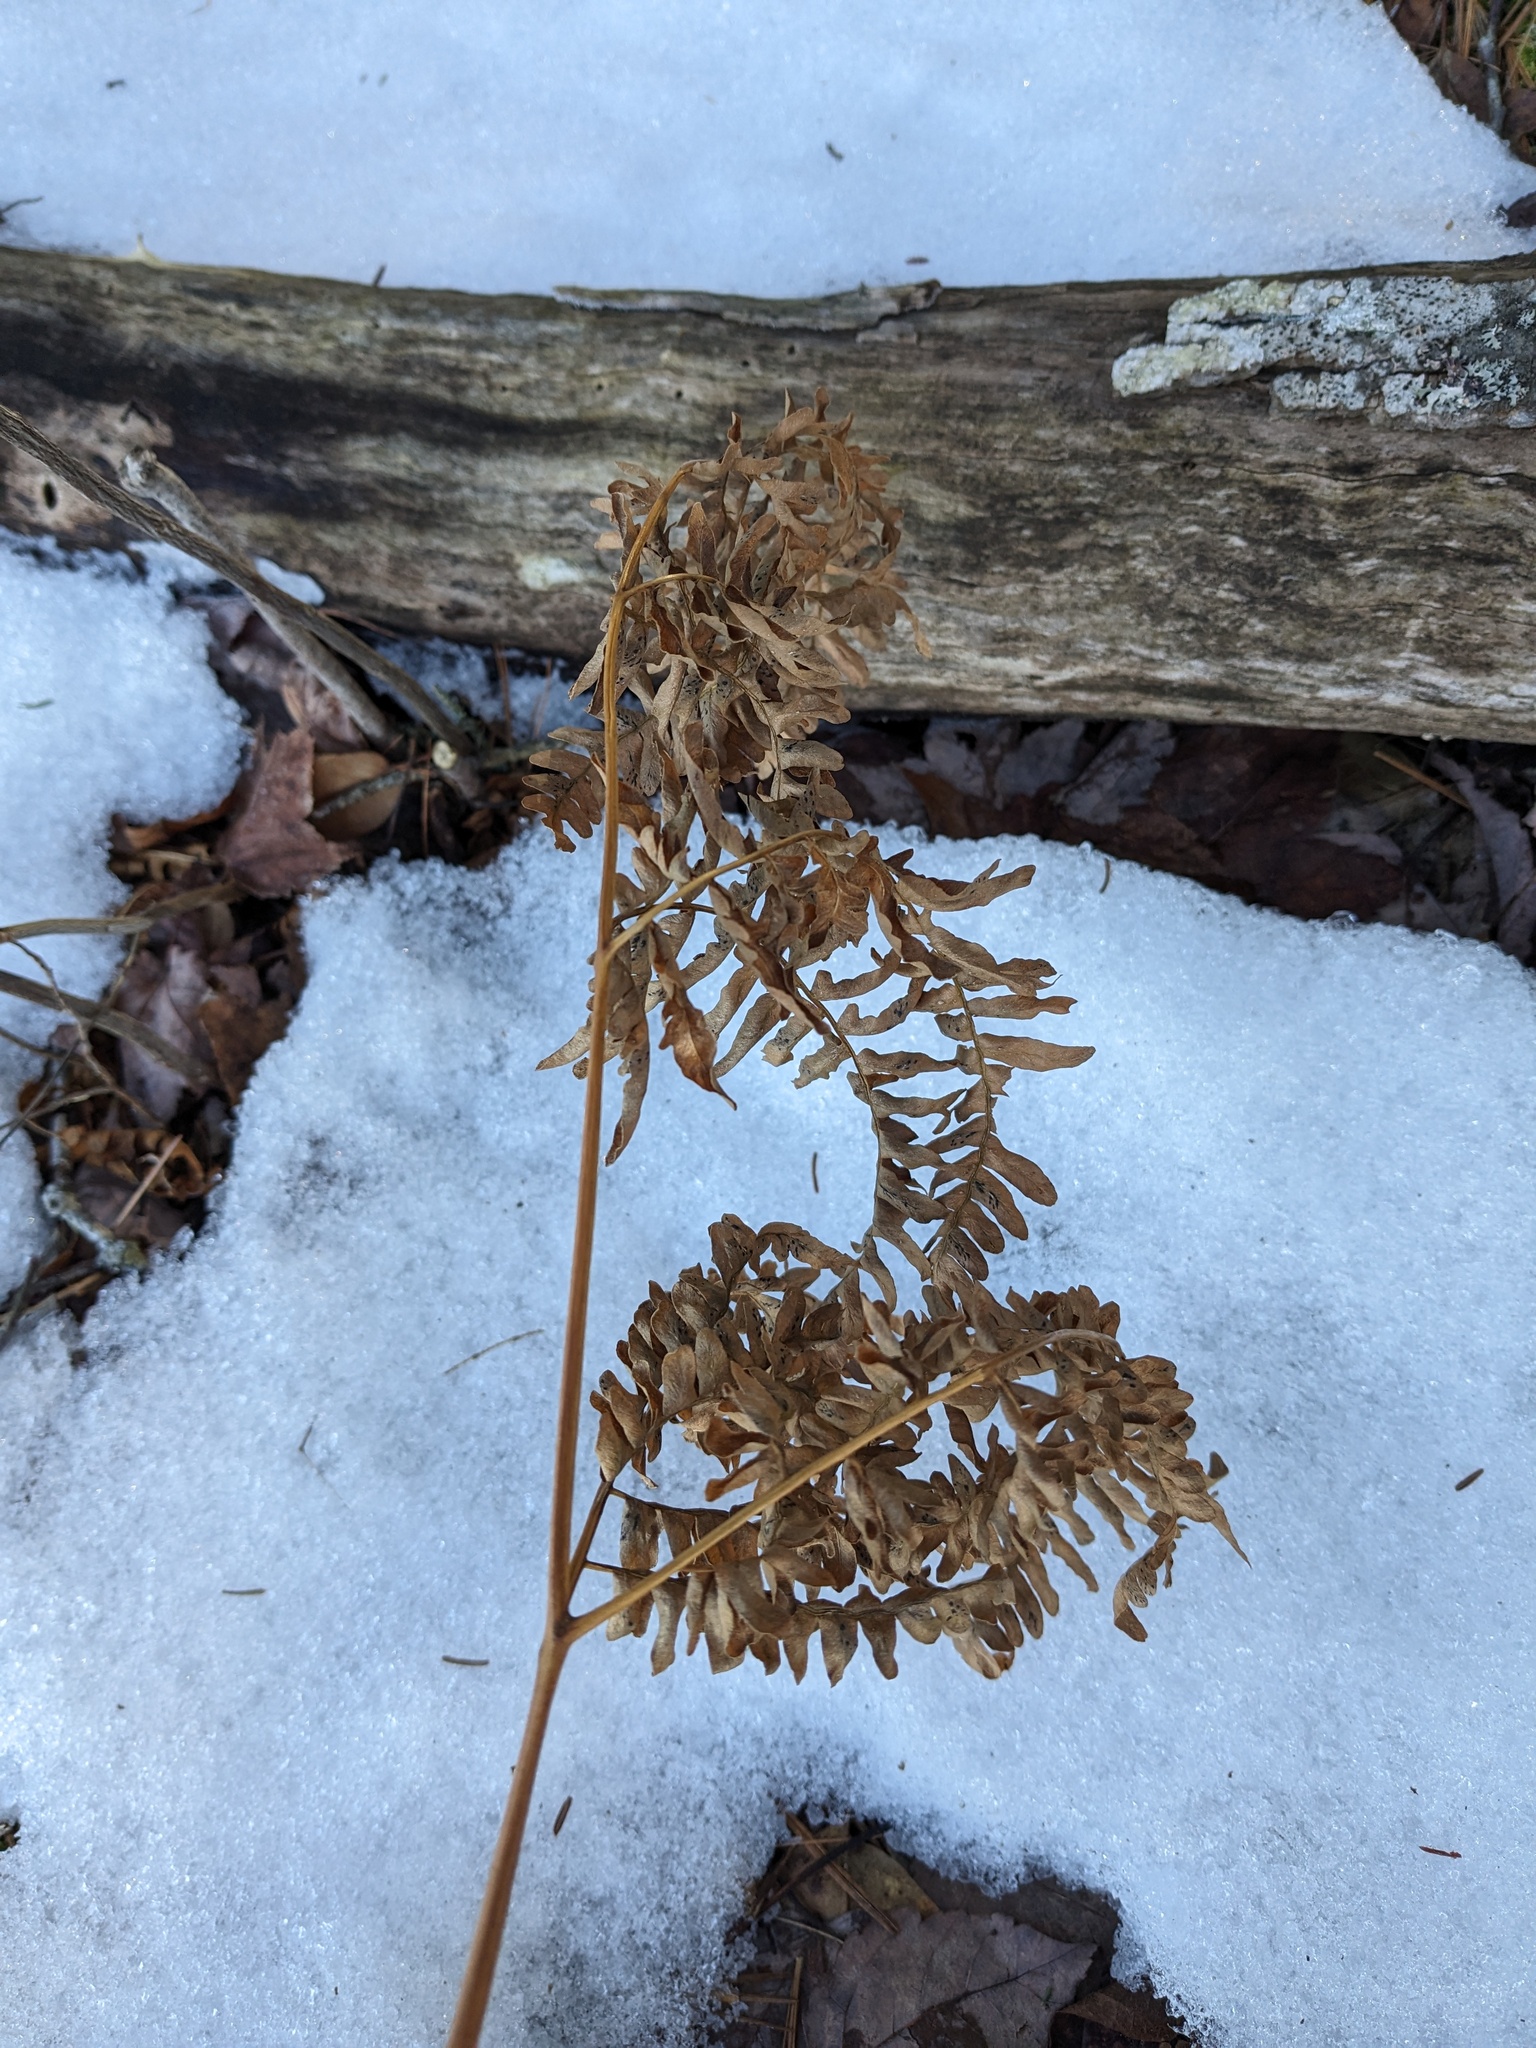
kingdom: Plantae
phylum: Tracheophyta
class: Polypodiopsida
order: Polypodiales
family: Dennstaedtiaceae
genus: Pteridium
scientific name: Pteridium aquilinum
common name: Bracken
